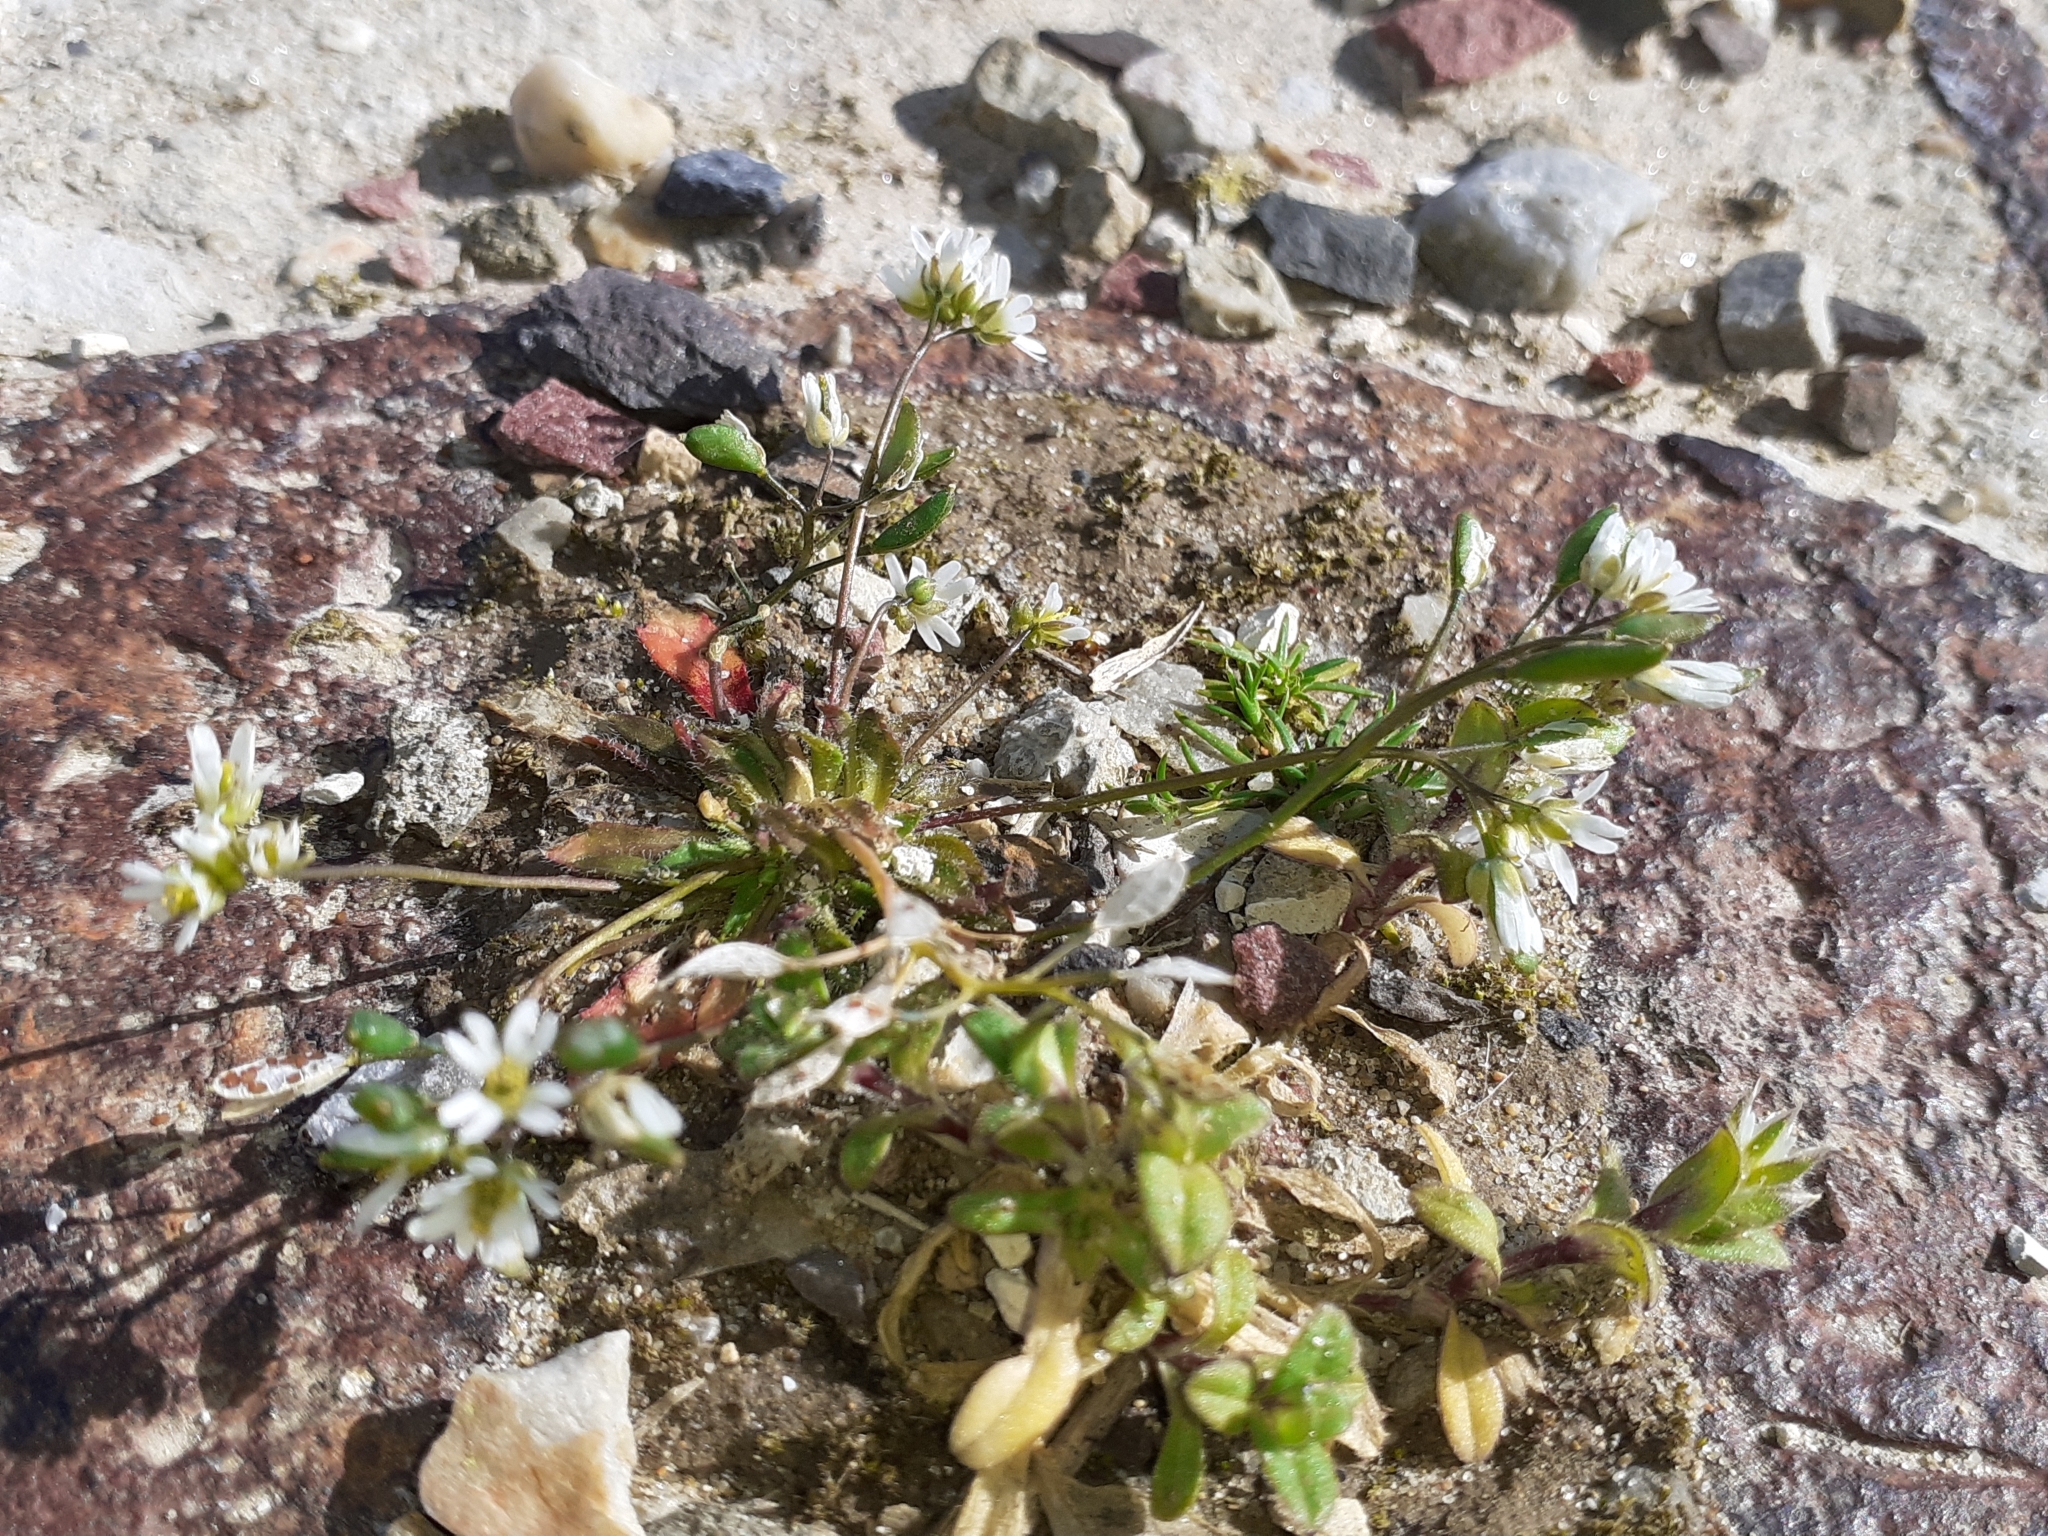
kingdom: Plantae
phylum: Tracheophyta
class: Magnoliopsida
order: Brassicales
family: Brassicaceae
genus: Draba
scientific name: Draba verna
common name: Spring draba
